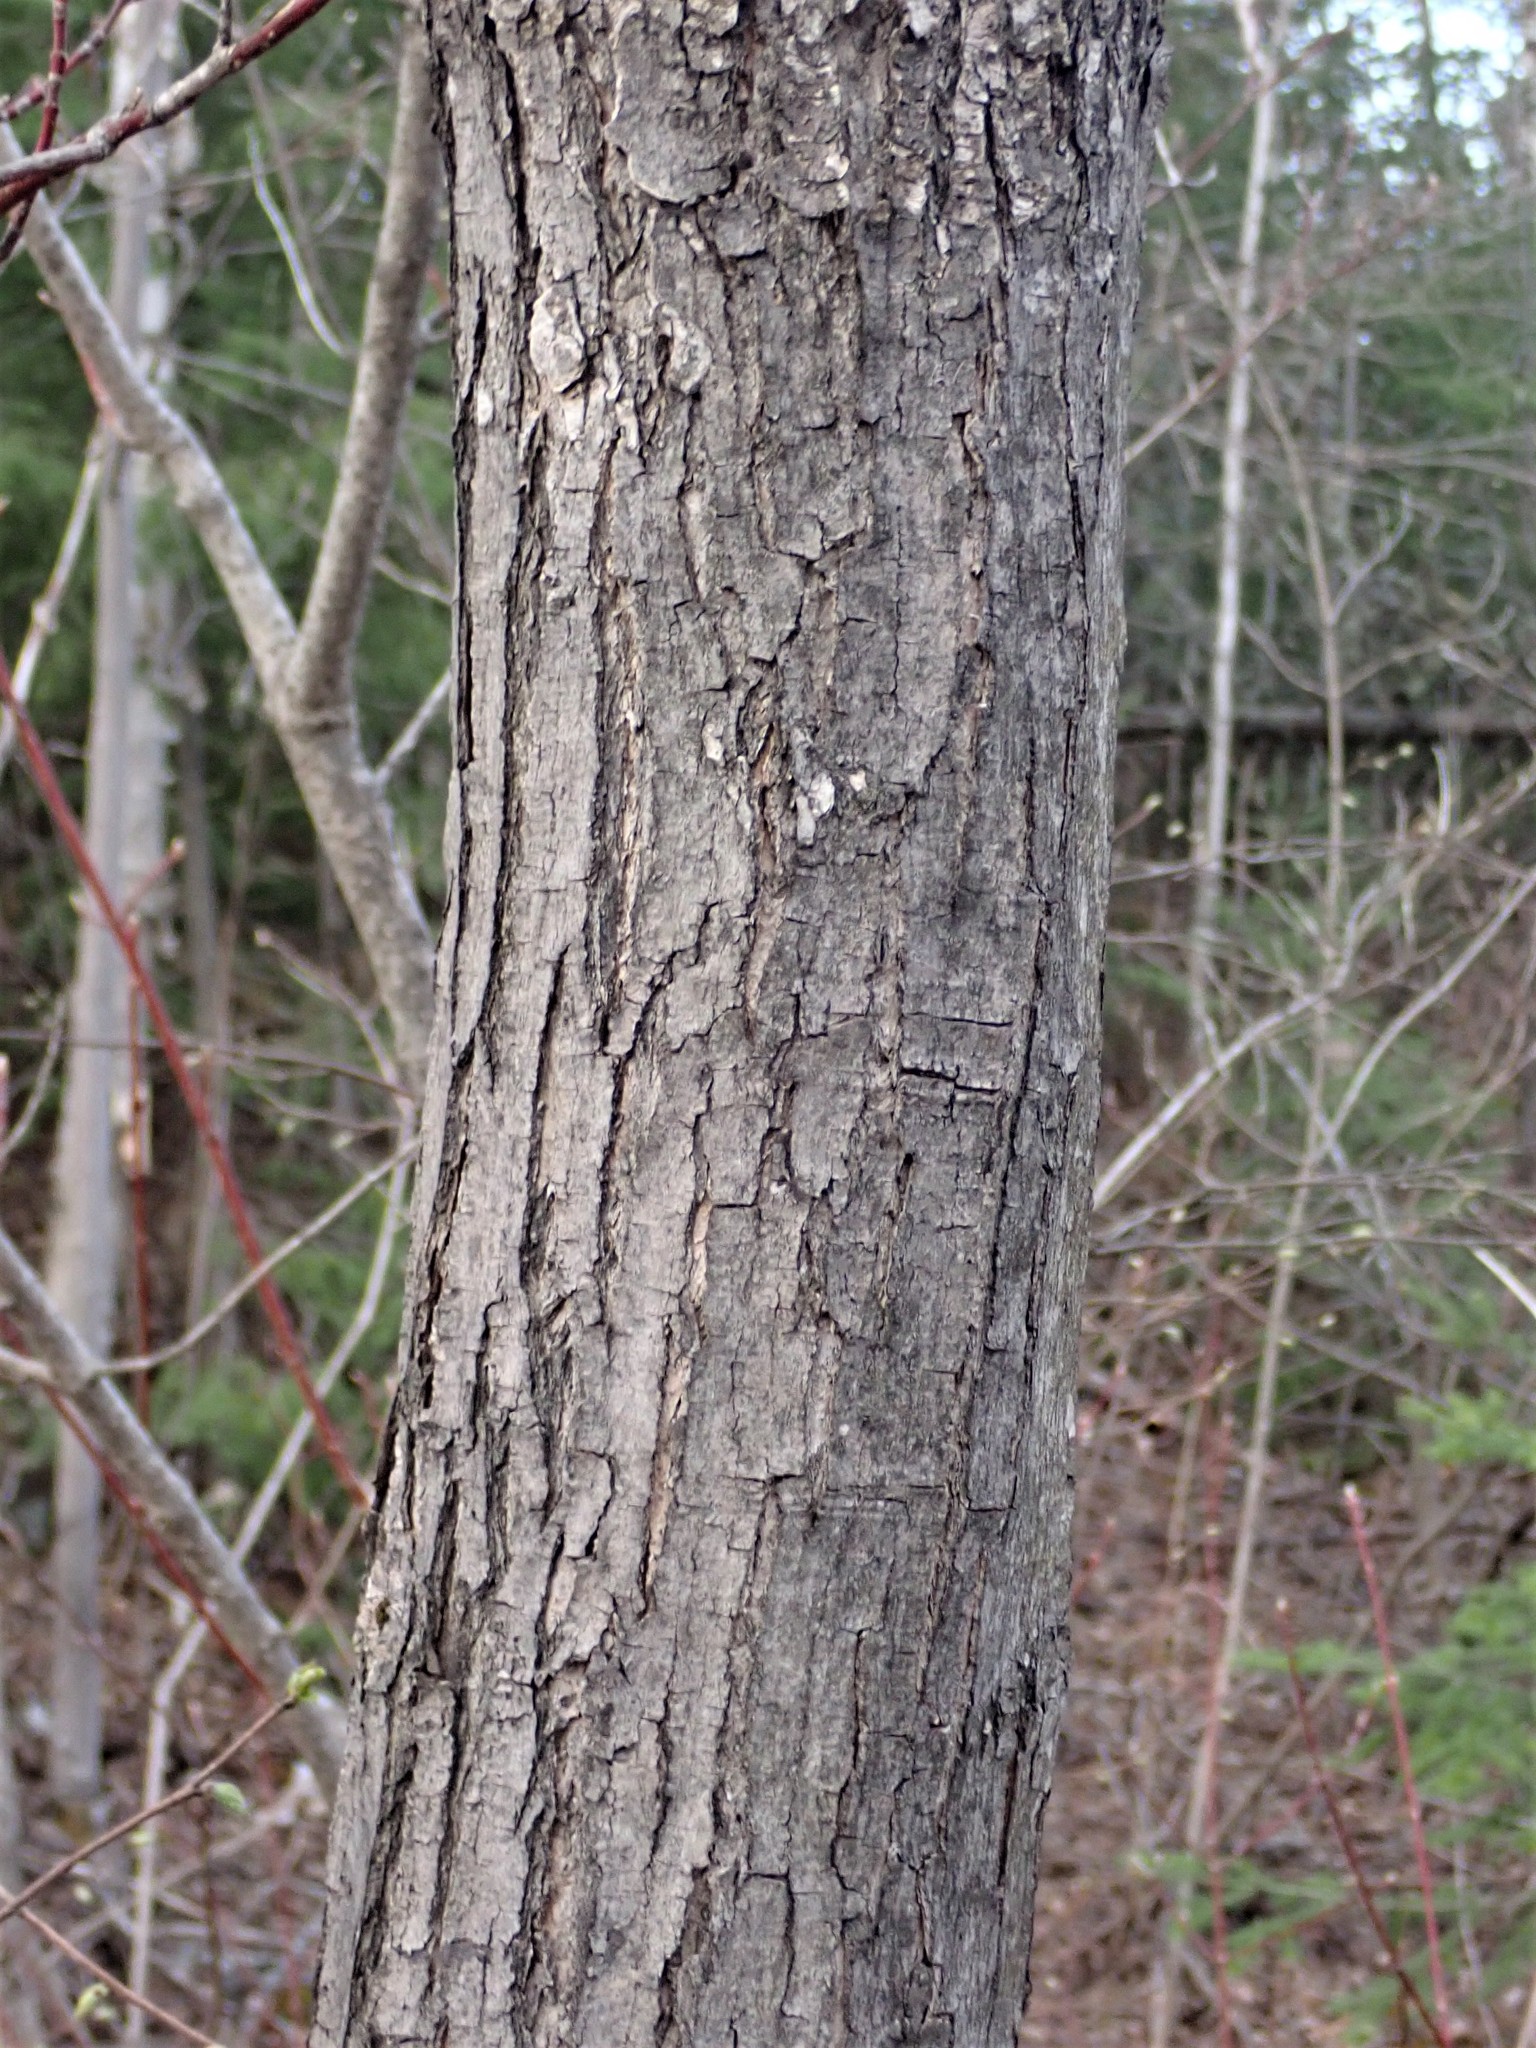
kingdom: Plantae
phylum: Tracheophyta
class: Magnoliopsida
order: Sapindales
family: Sapindaceae
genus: Acer
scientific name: Acer rubrum
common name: Red maple
